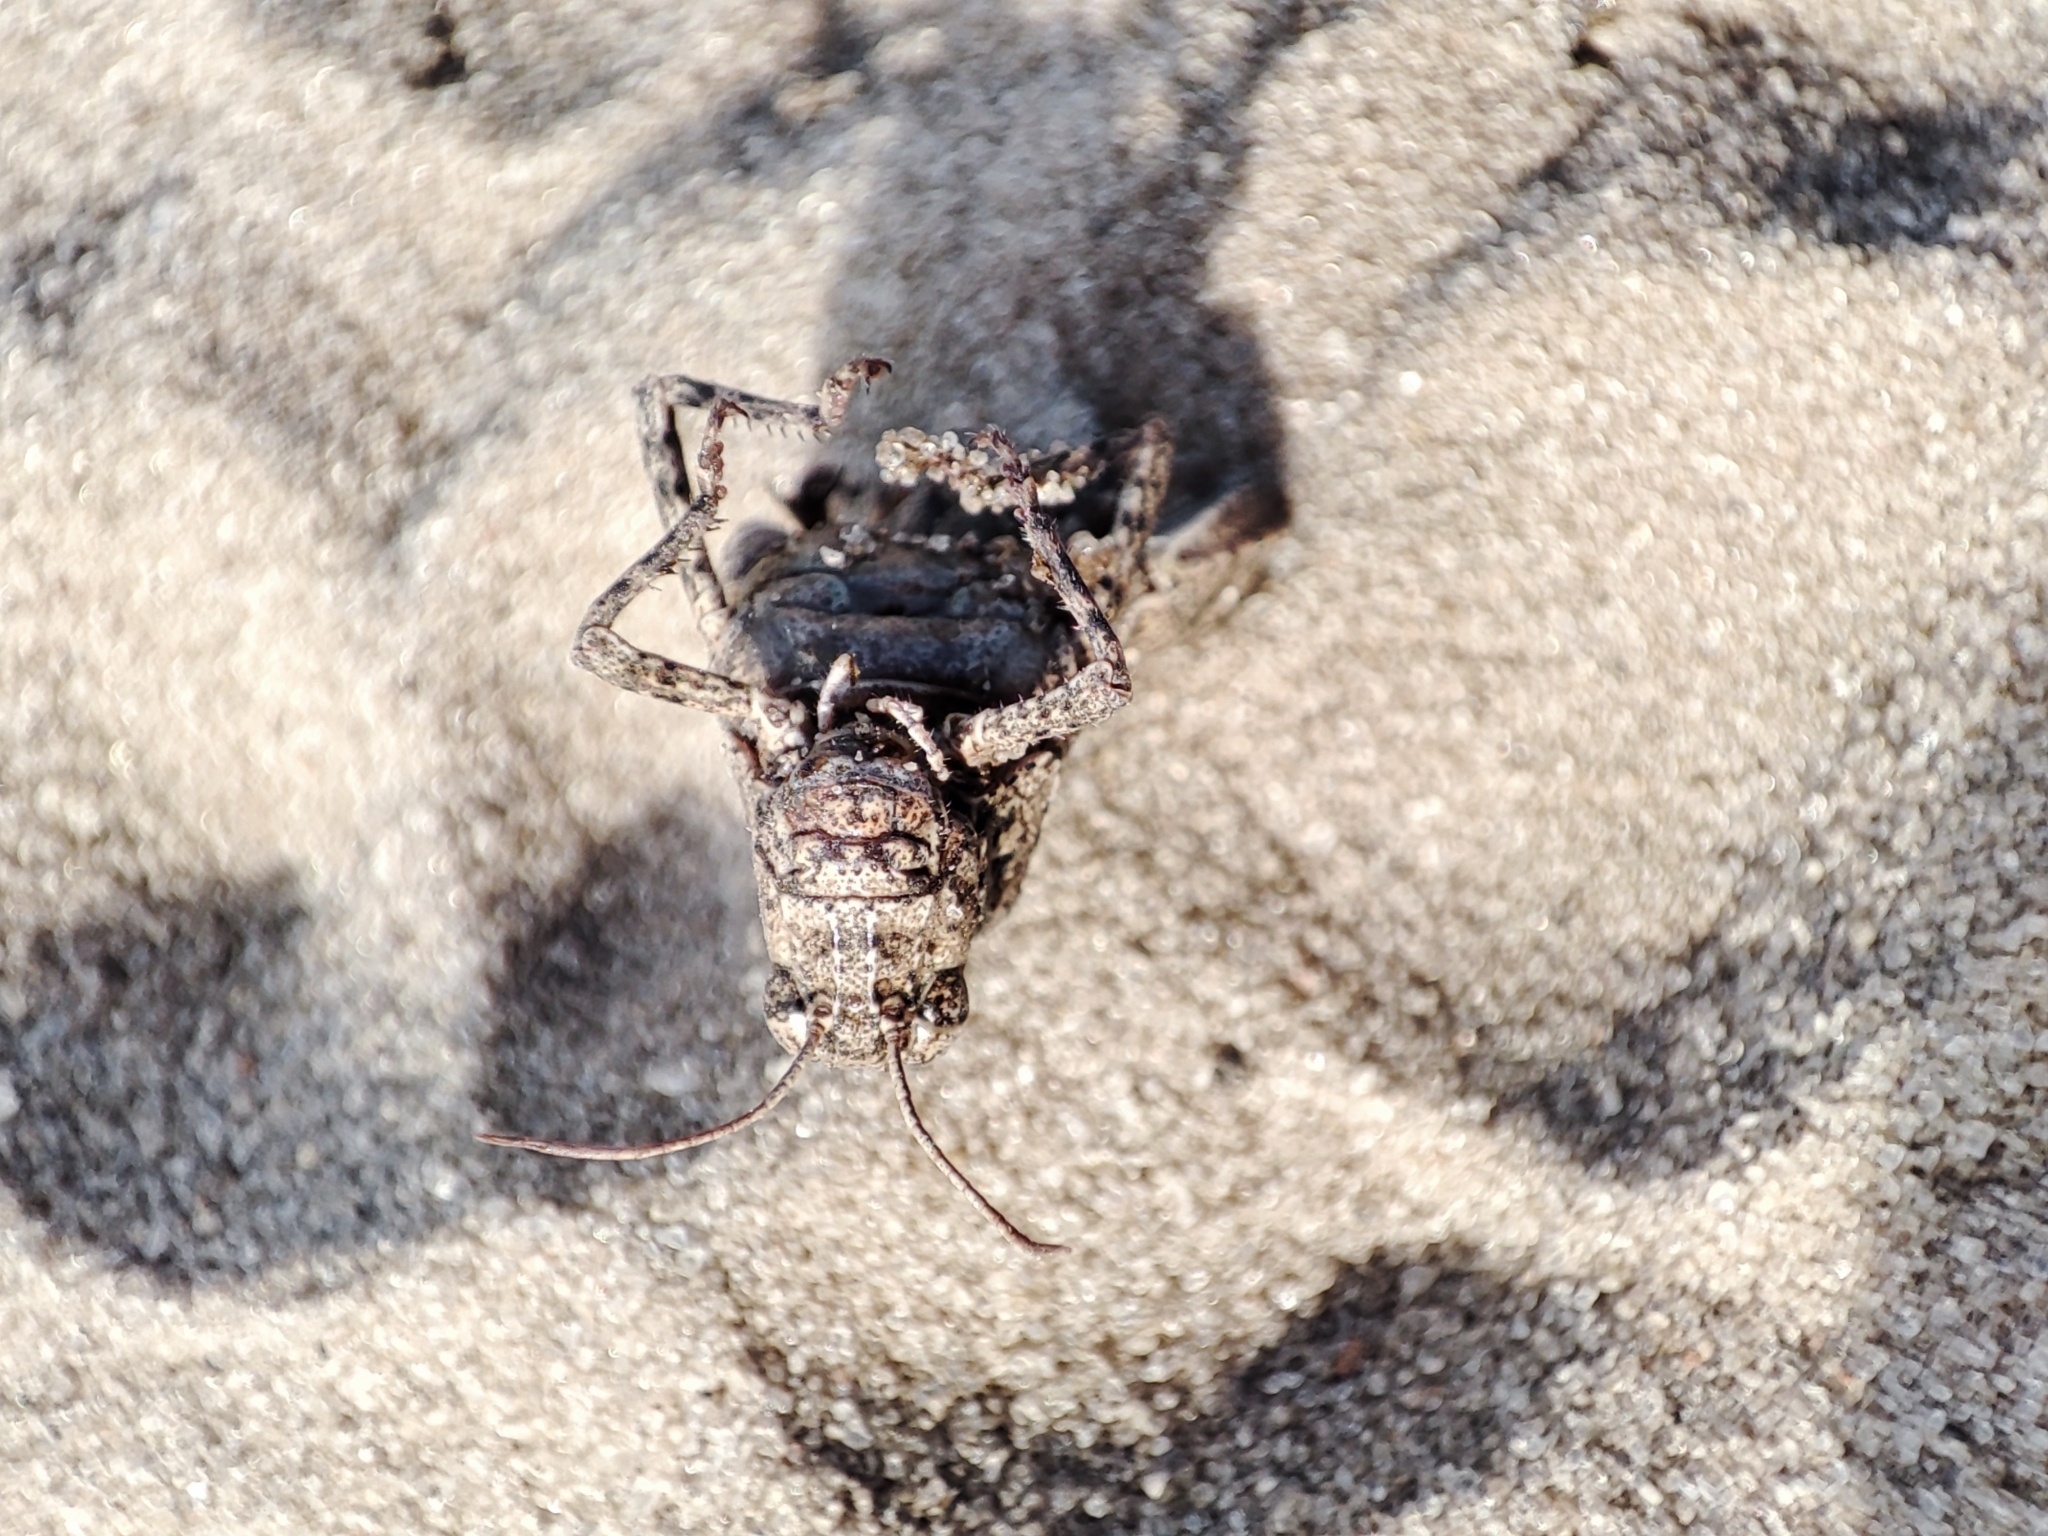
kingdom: Animalia
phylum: Arthropoda
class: Insecta
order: Orthoptera
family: Acrididae
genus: Oedipoda
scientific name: Oedipoda caerulescens
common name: Blue-winged grasshopper
